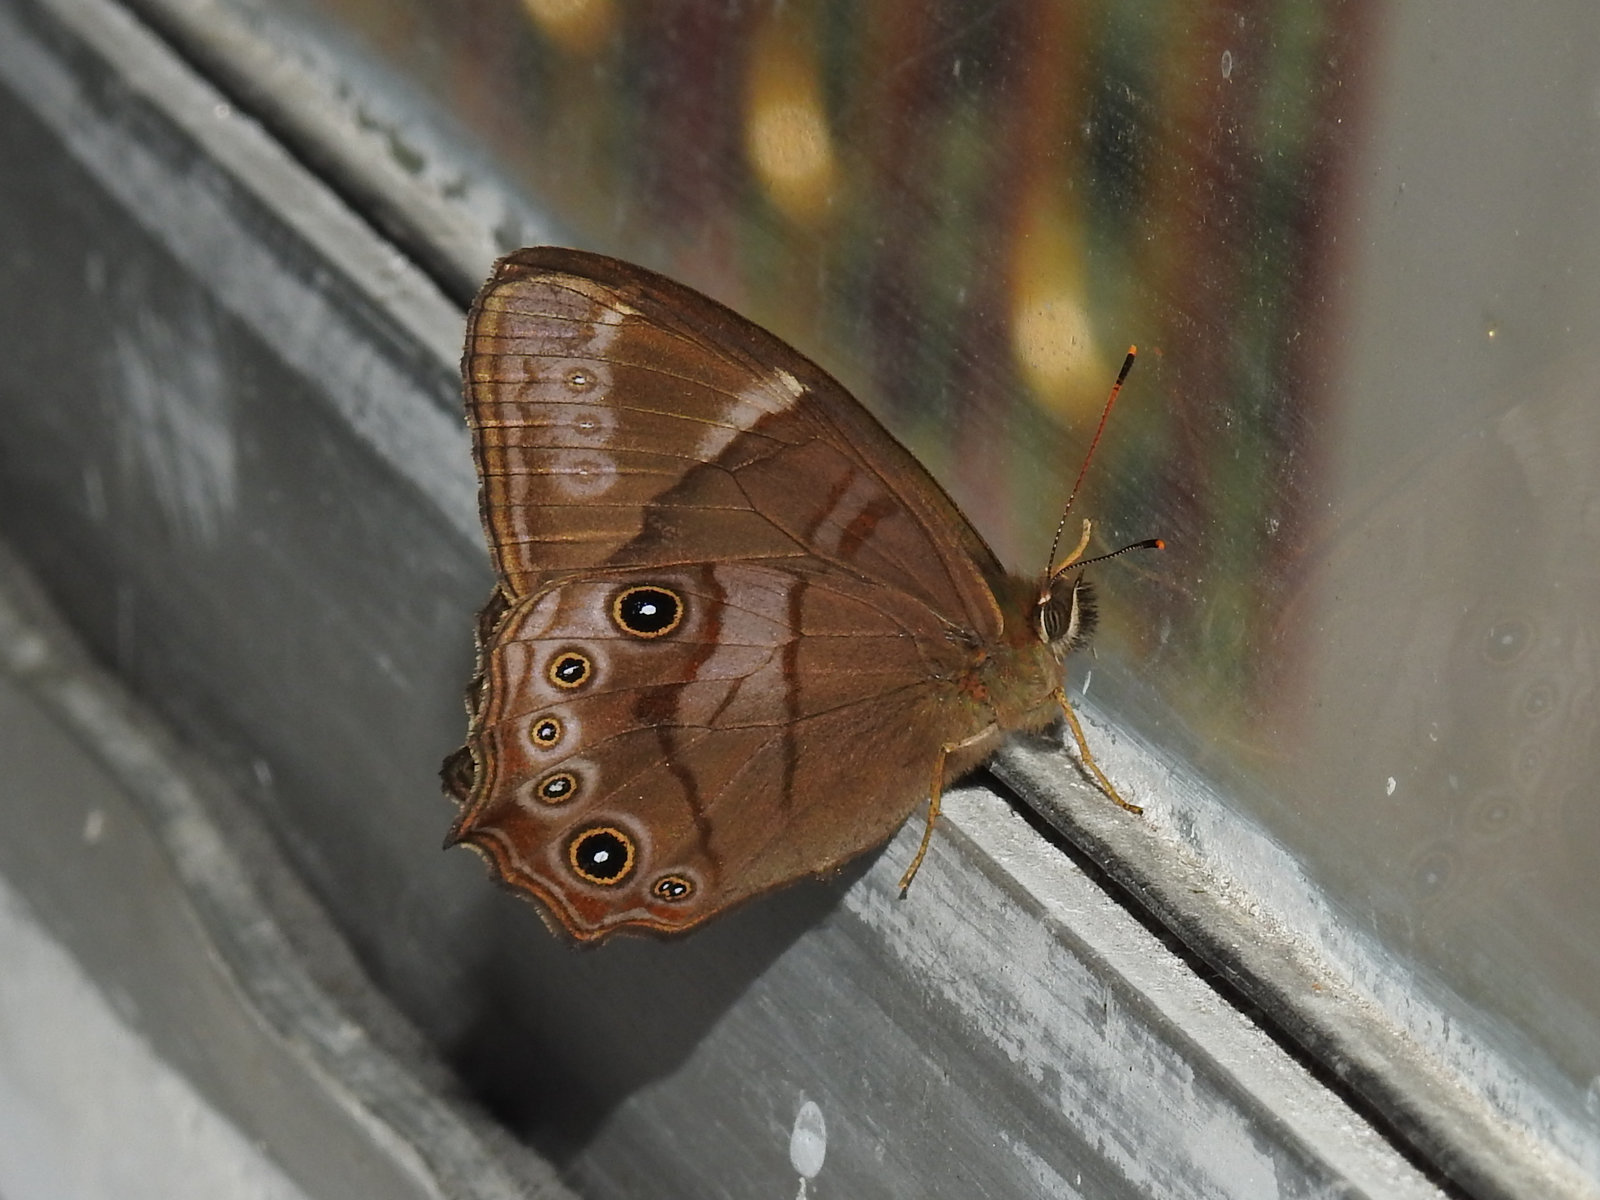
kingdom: Animalia
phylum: Arthropoda
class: Insecta
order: Lepidoptera
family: Nymphalidae
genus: Lethe
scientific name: Lethe
